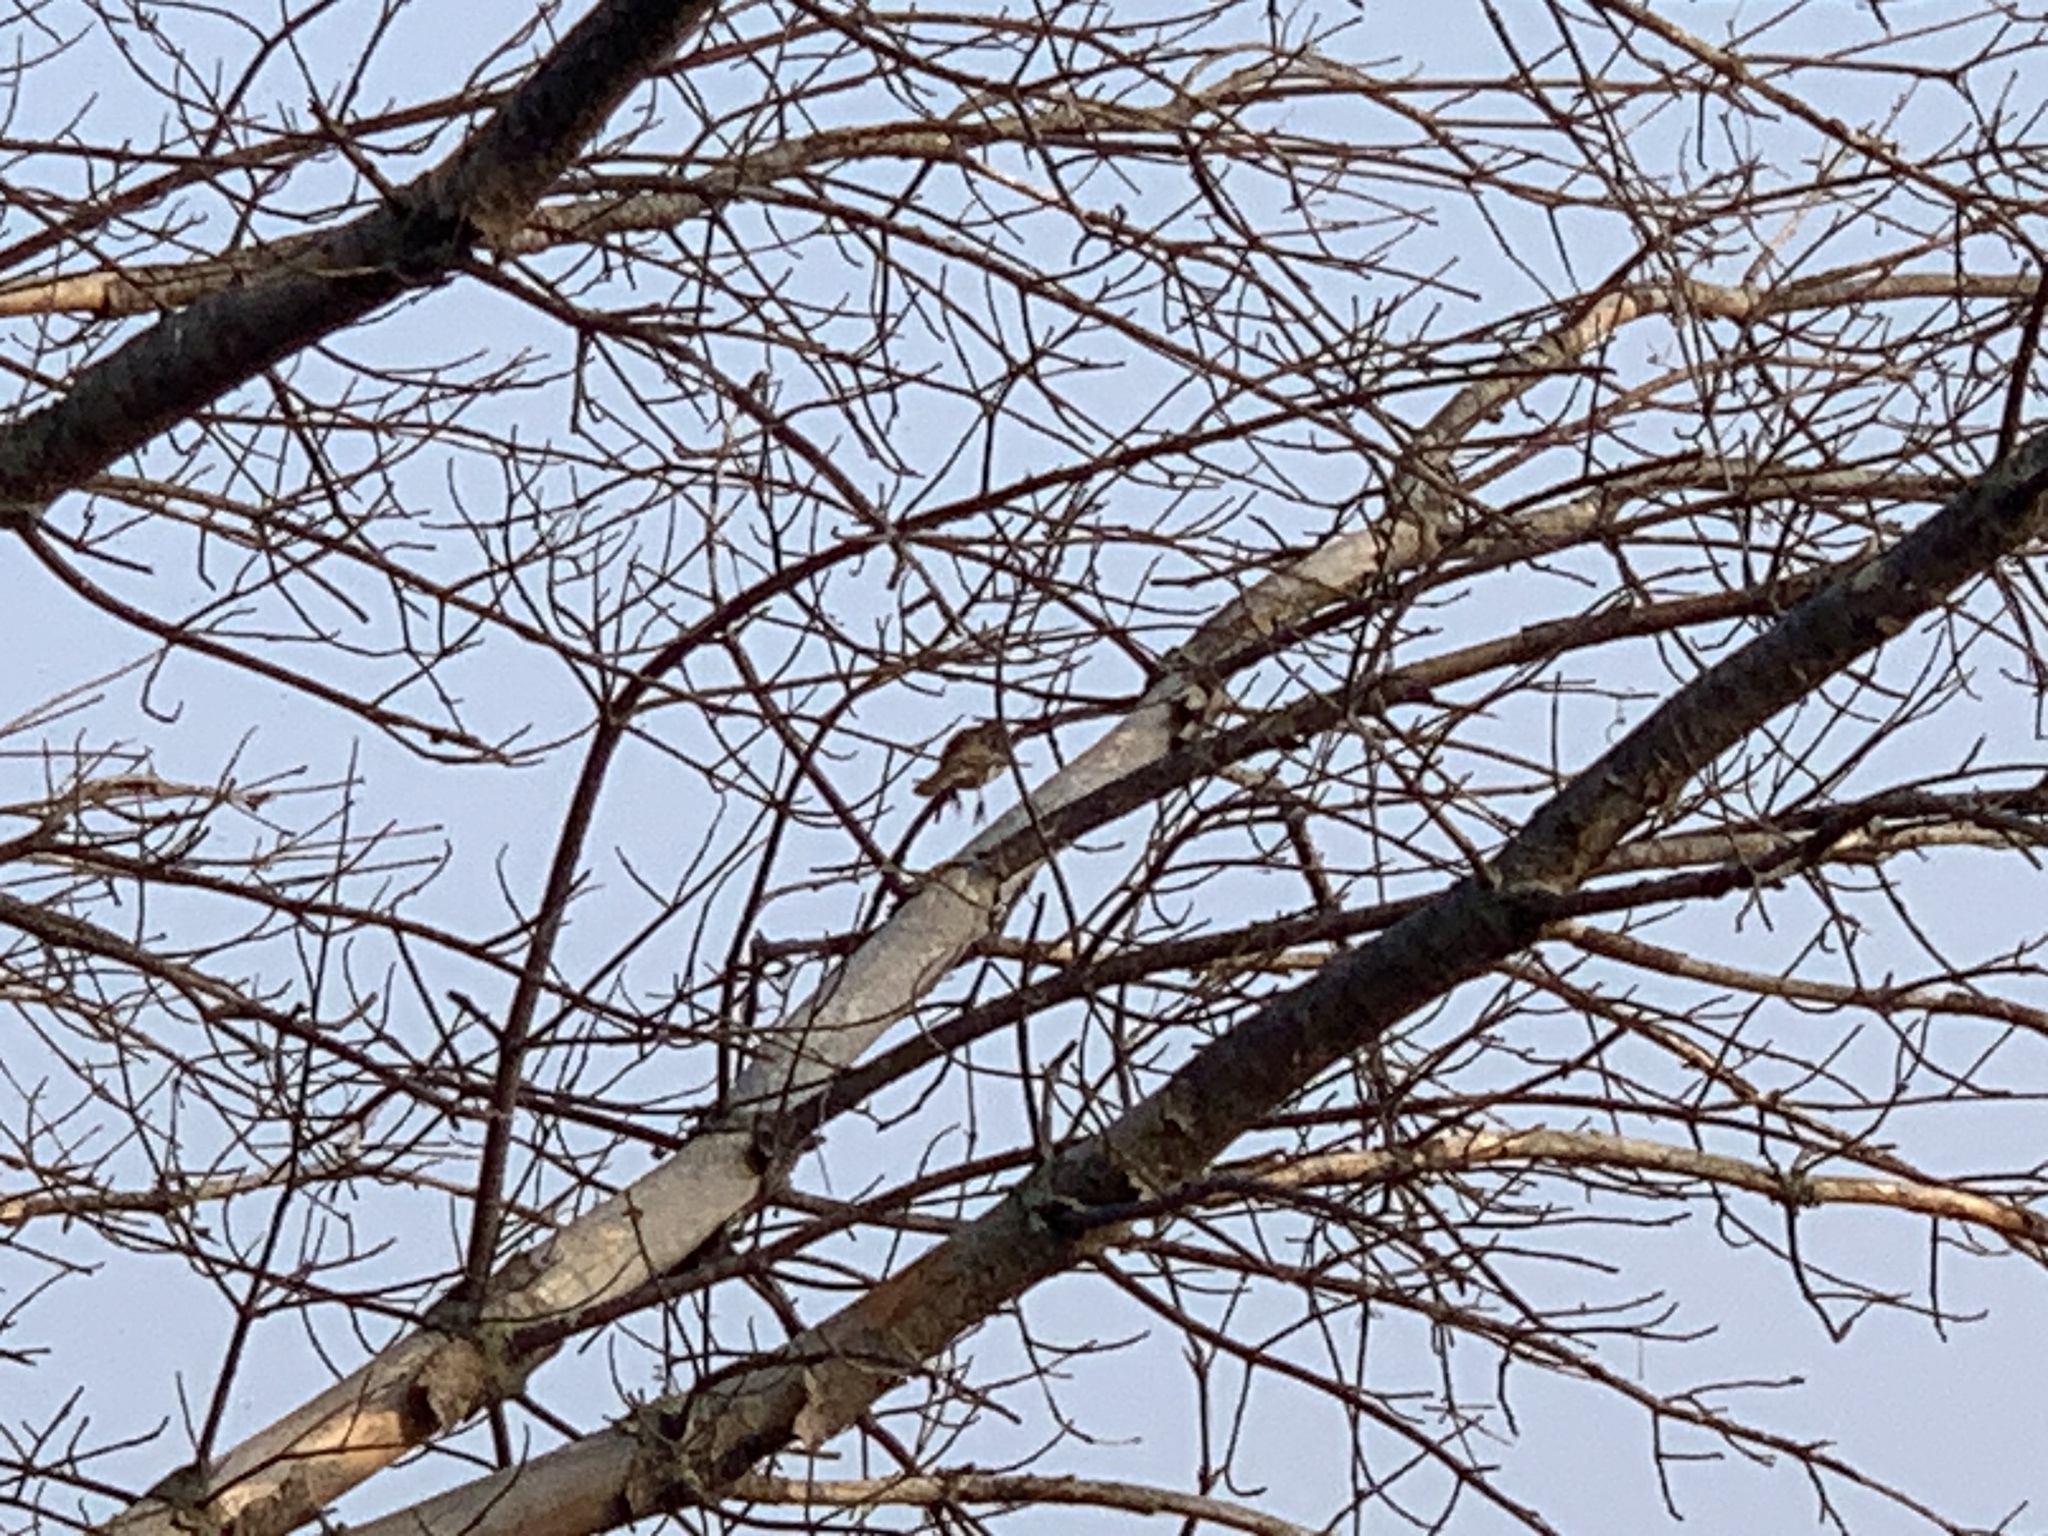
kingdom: Animalia
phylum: Chordata
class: Aves
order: Passeriformes
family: Passerellidae
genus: Melospiza
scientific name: Melospiza melodia
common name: Song sparrow
